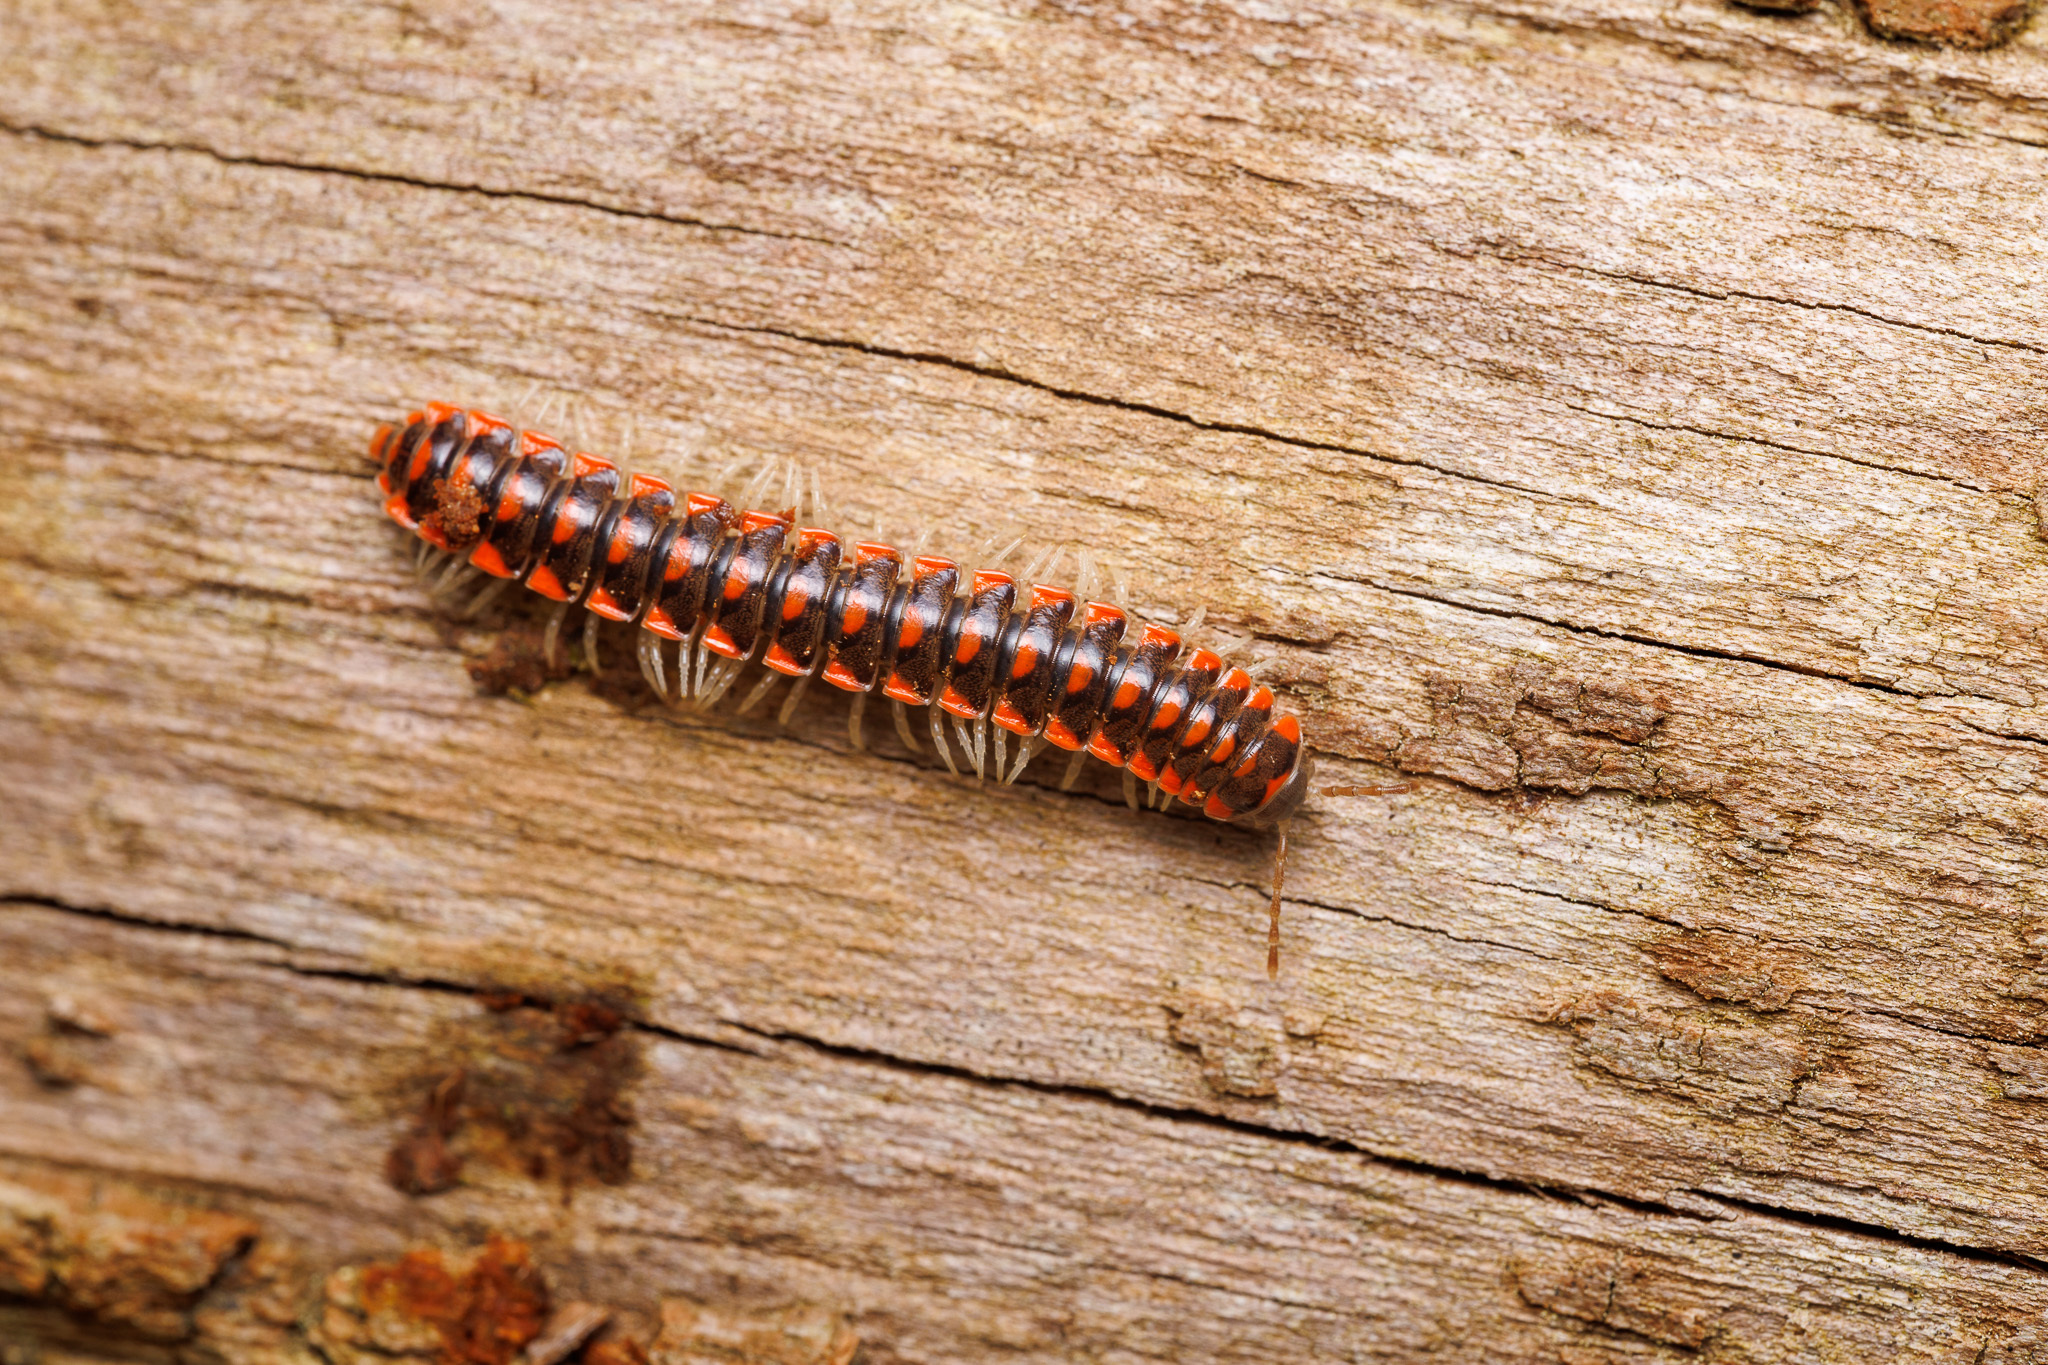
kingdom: Animalia
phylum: Arthropoda
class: Diplopoda
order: Polydesmida
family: Xystodesmidae
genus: Euryurus
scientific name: Euryurus maculatus
